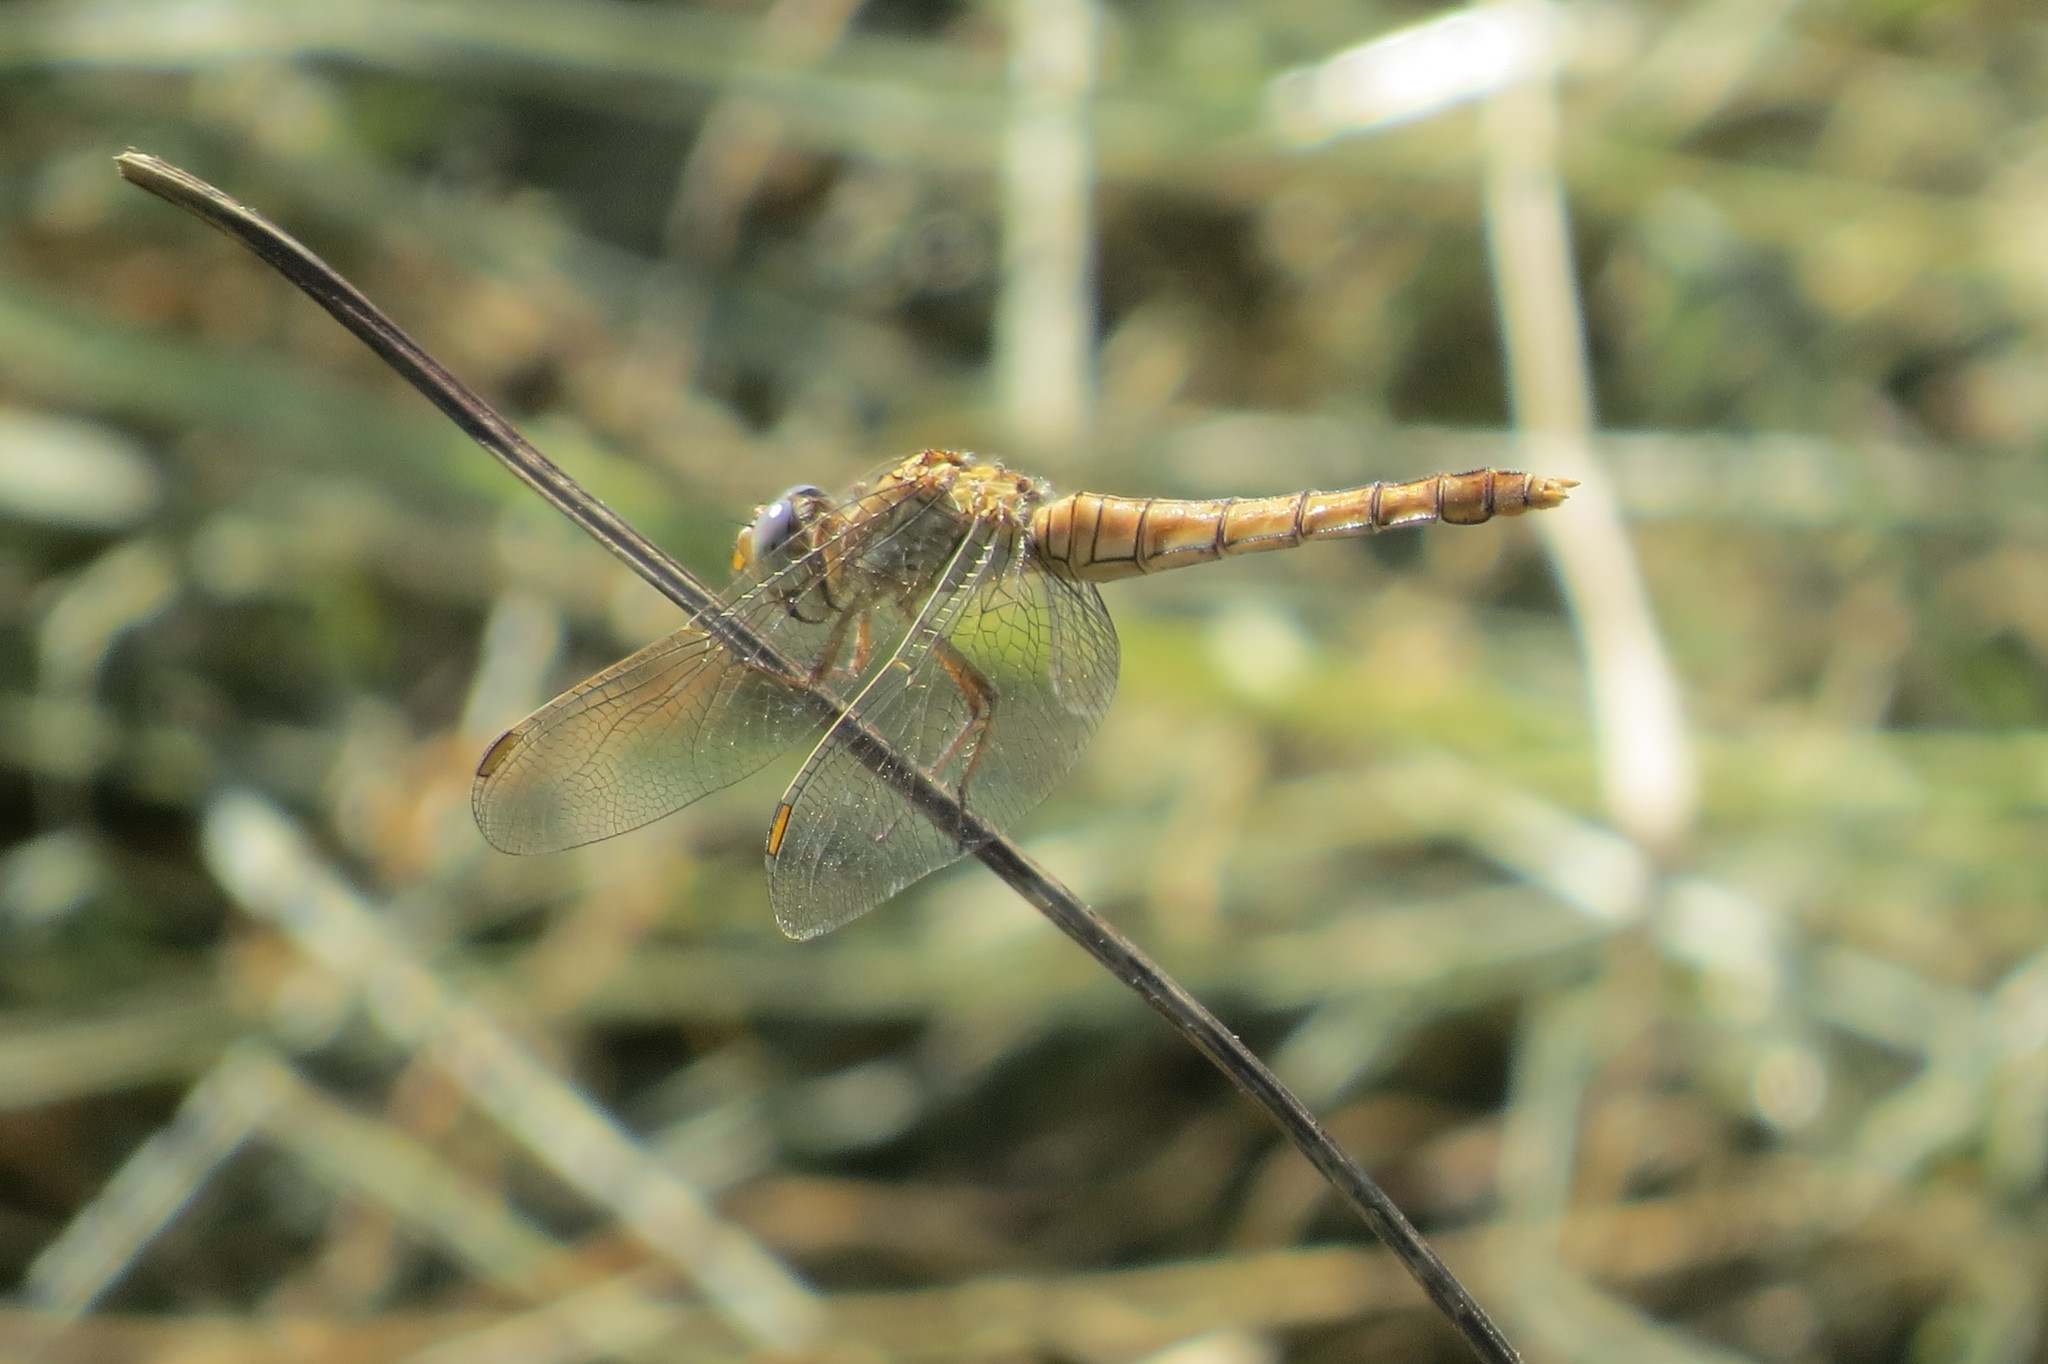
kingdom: Animalia
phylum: Arthropoda
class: Insecta
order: Odonata
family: Libellulidae
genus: Orthetrum
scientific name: Orthetrum brunneum
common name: Southern skimmer
